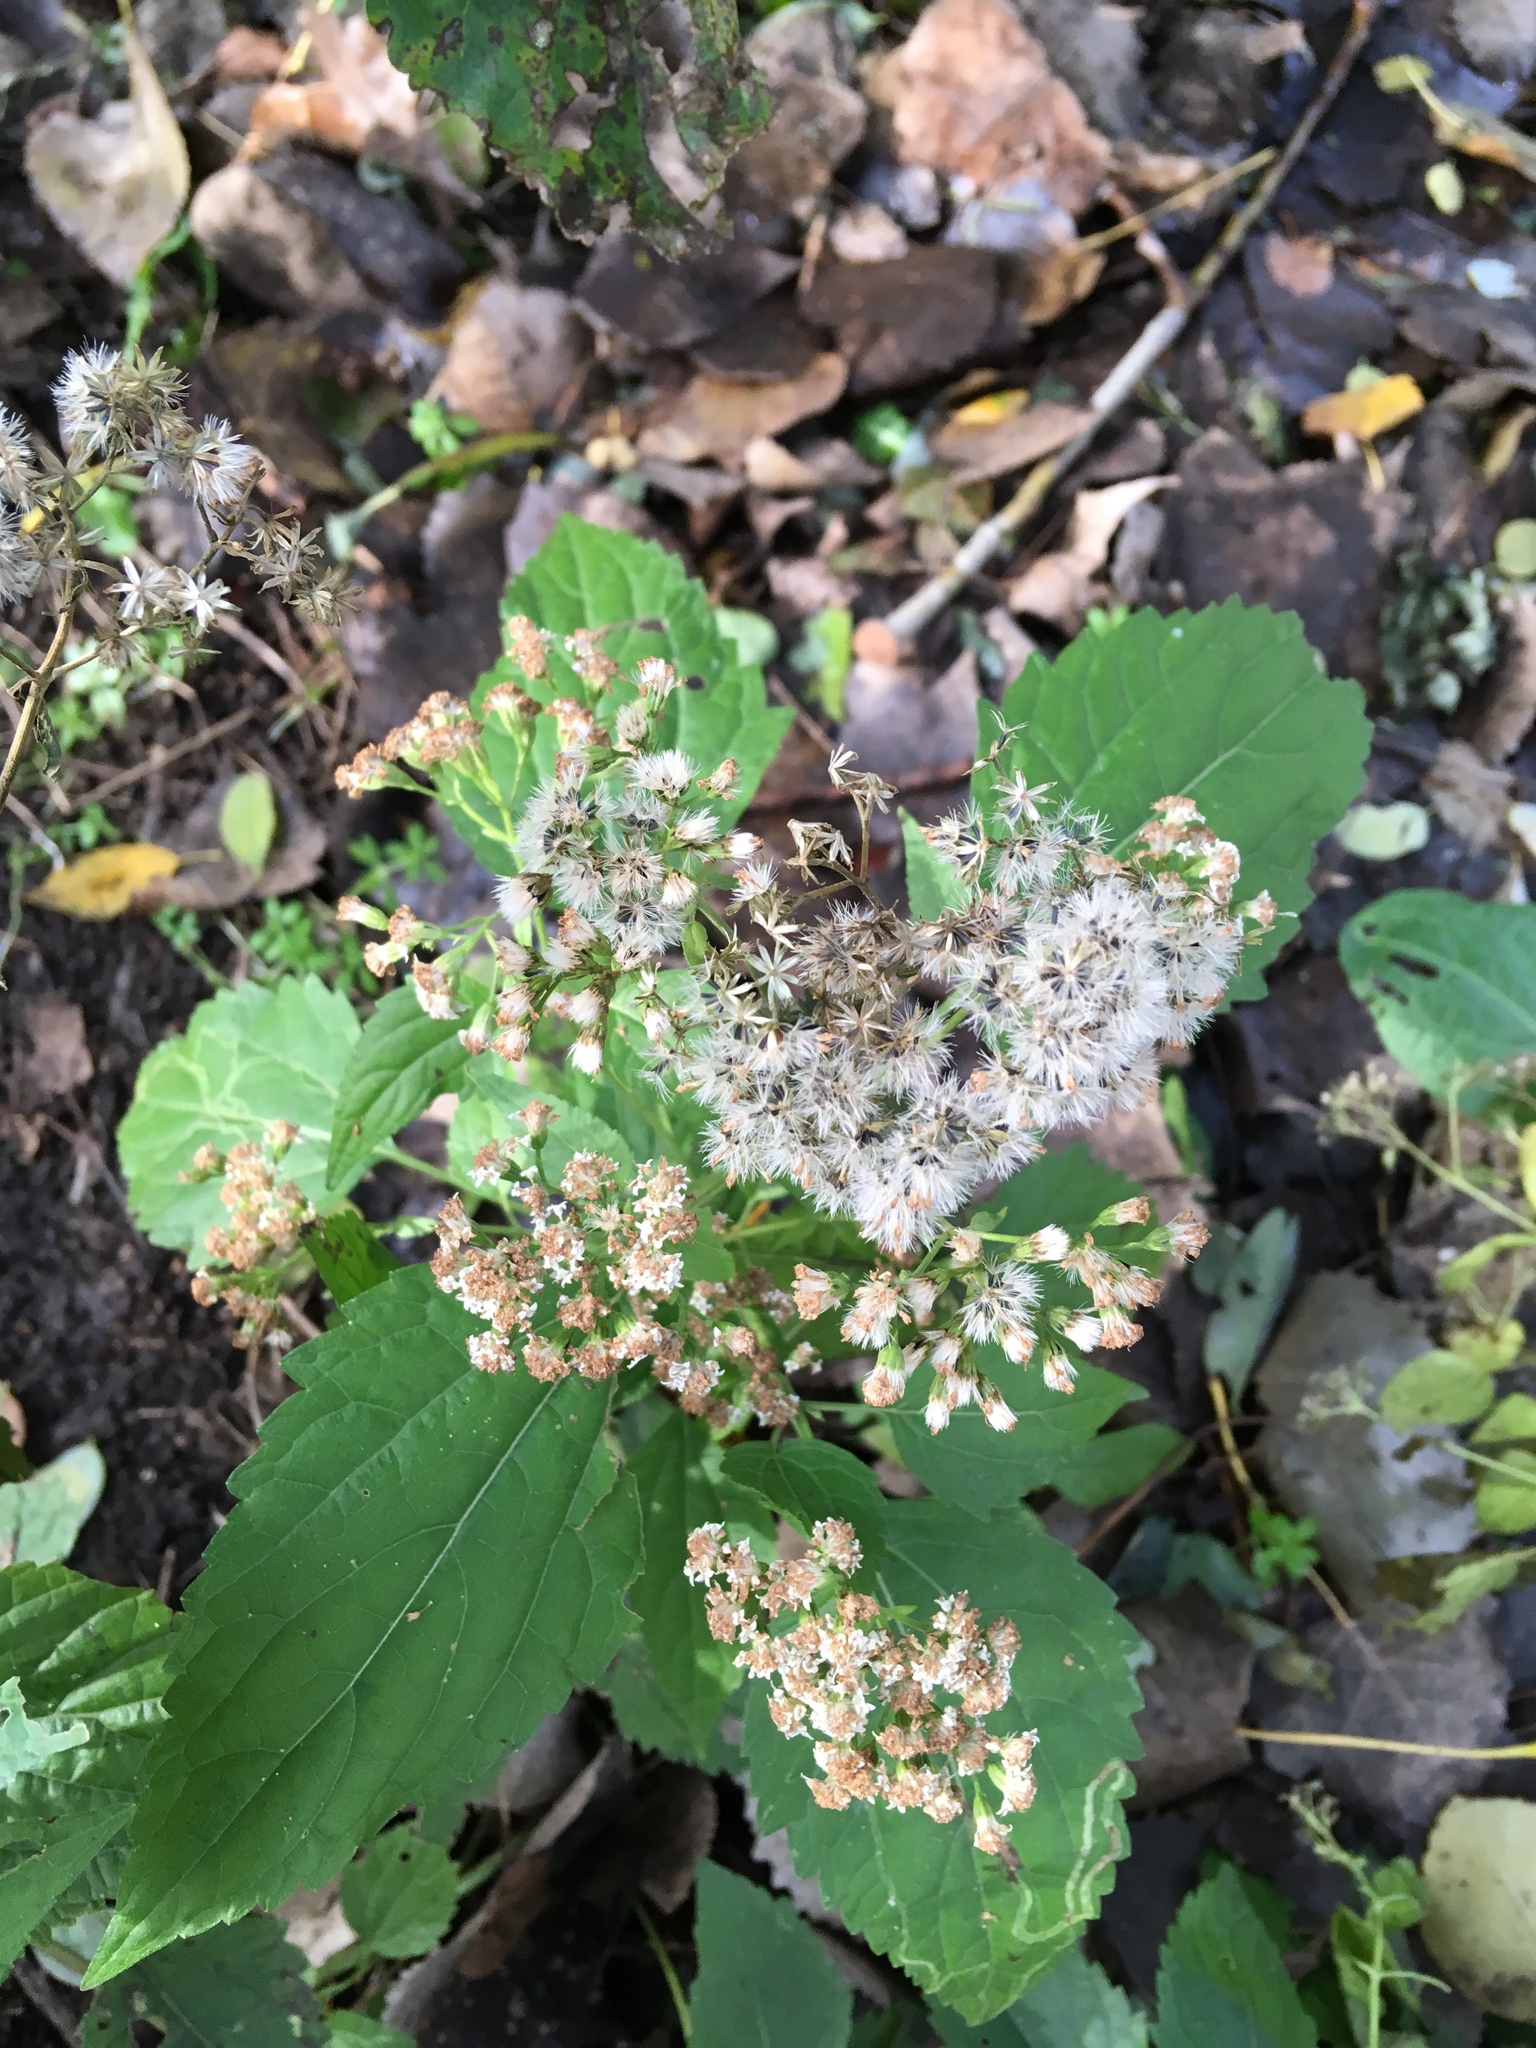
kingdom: Plantae
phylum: Tracheophyta
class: Magnoliopsida
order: Asterales
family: Asteraceae
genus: Ageratina
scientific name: Ageratina altissima
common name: White snakeroot
